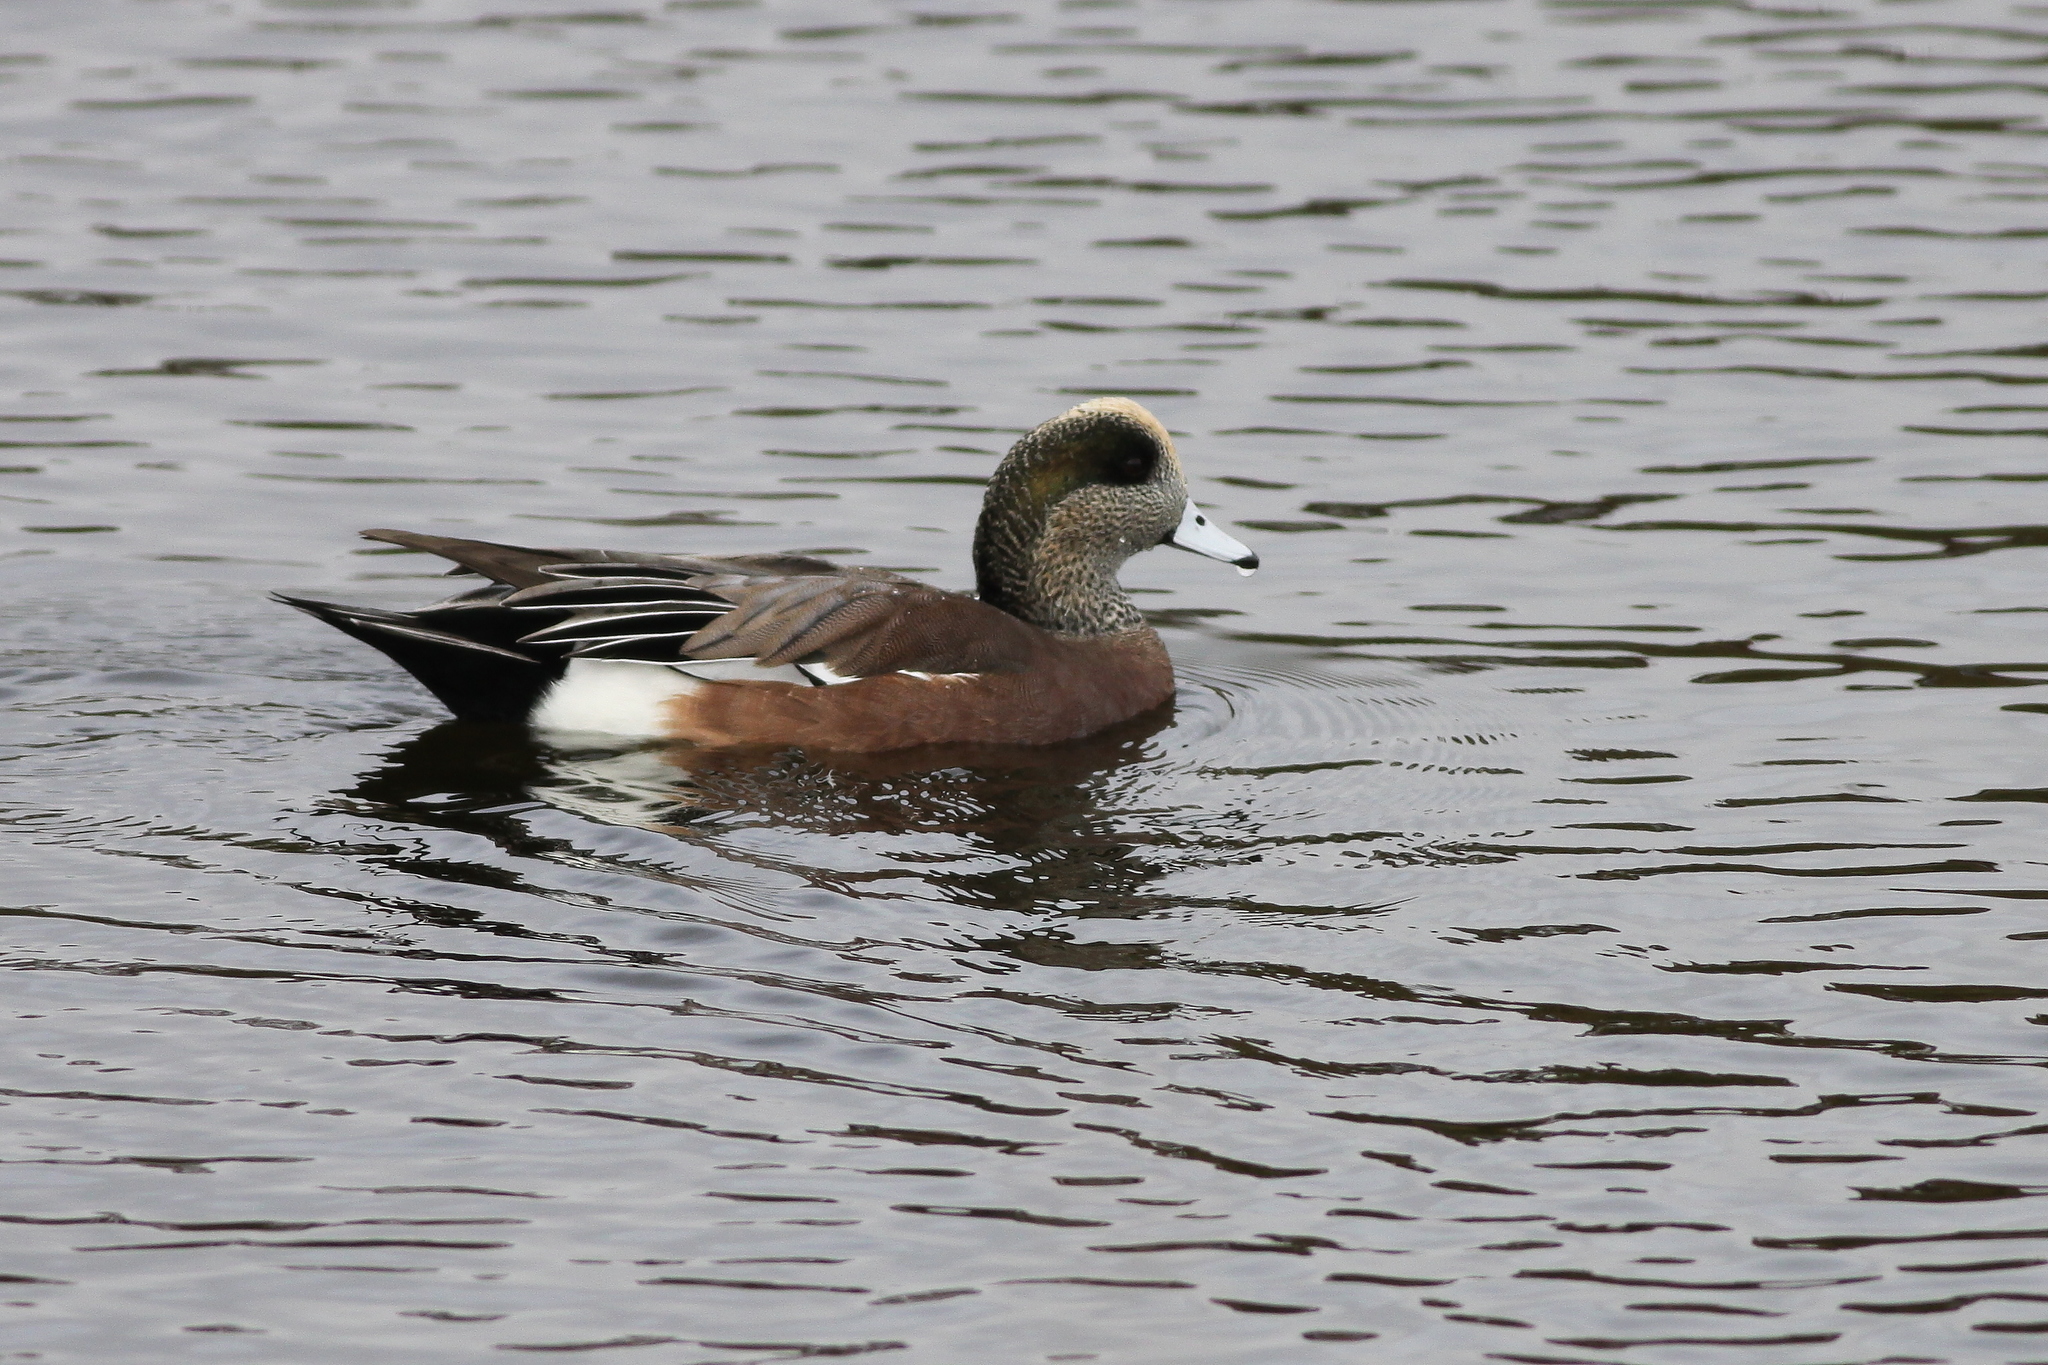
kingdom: Animalia
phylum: Chordata
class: Aves
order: Anseriformes
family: Anatidae
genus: Mareca
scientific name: Mareca americana
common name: American wigeon
